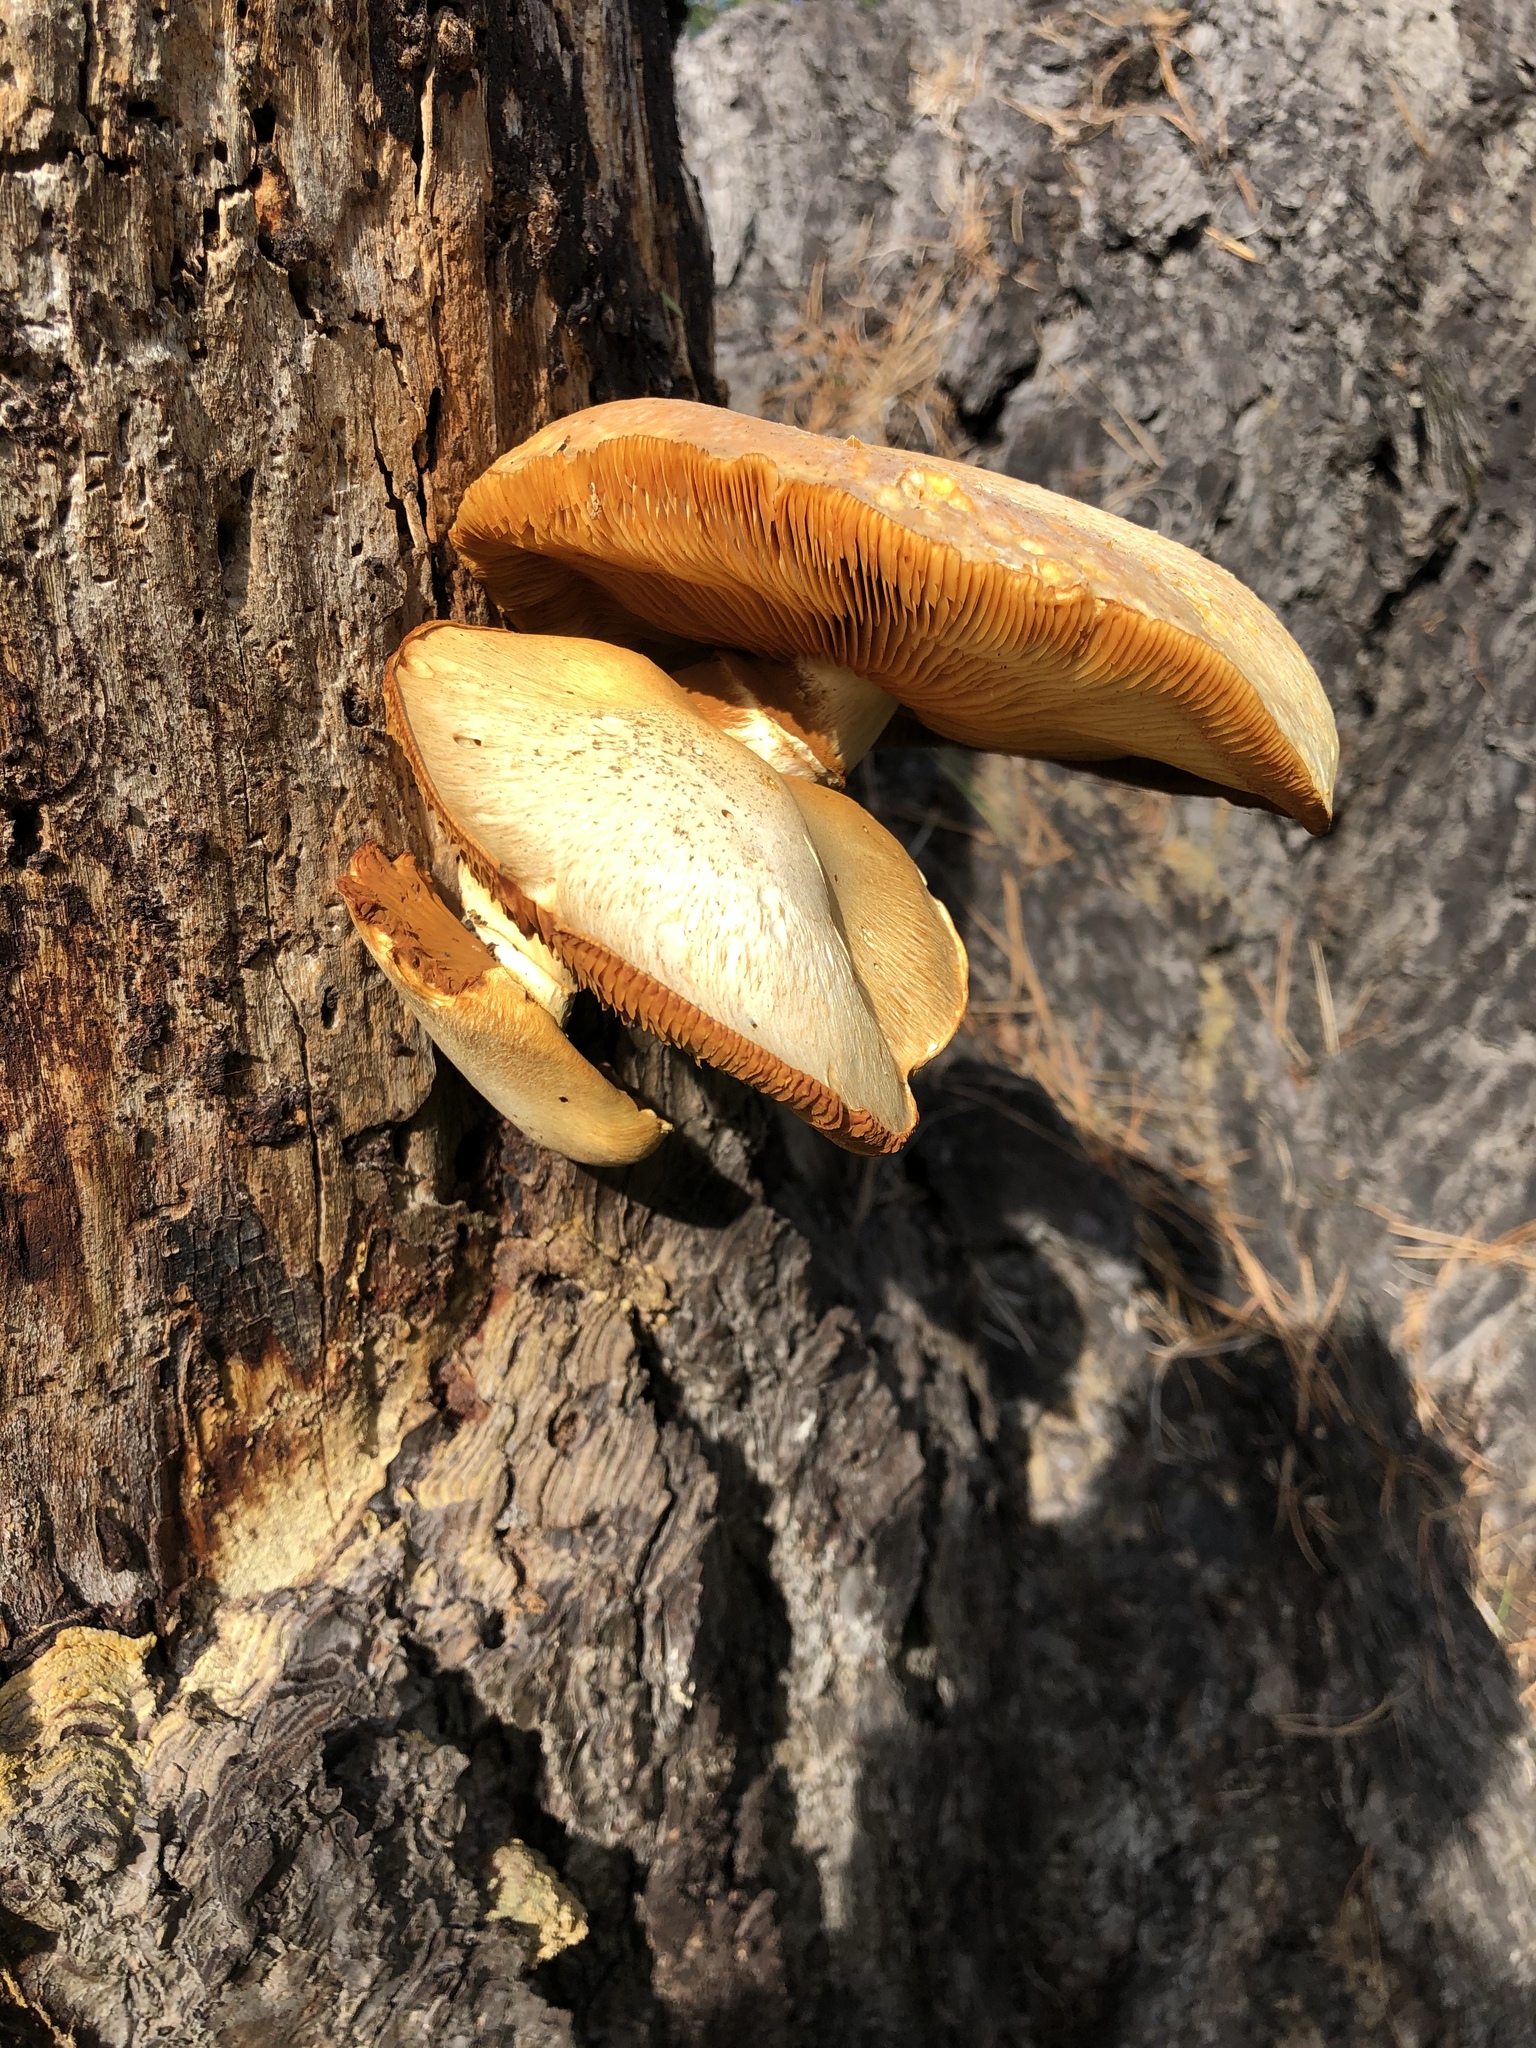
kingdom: Fungi
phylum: Basidiomycota
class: Agaricomycetes
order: Agaricales
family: Hymenogastraceae
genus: Gymnopilus
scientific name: Gymnopilus ventricosus
